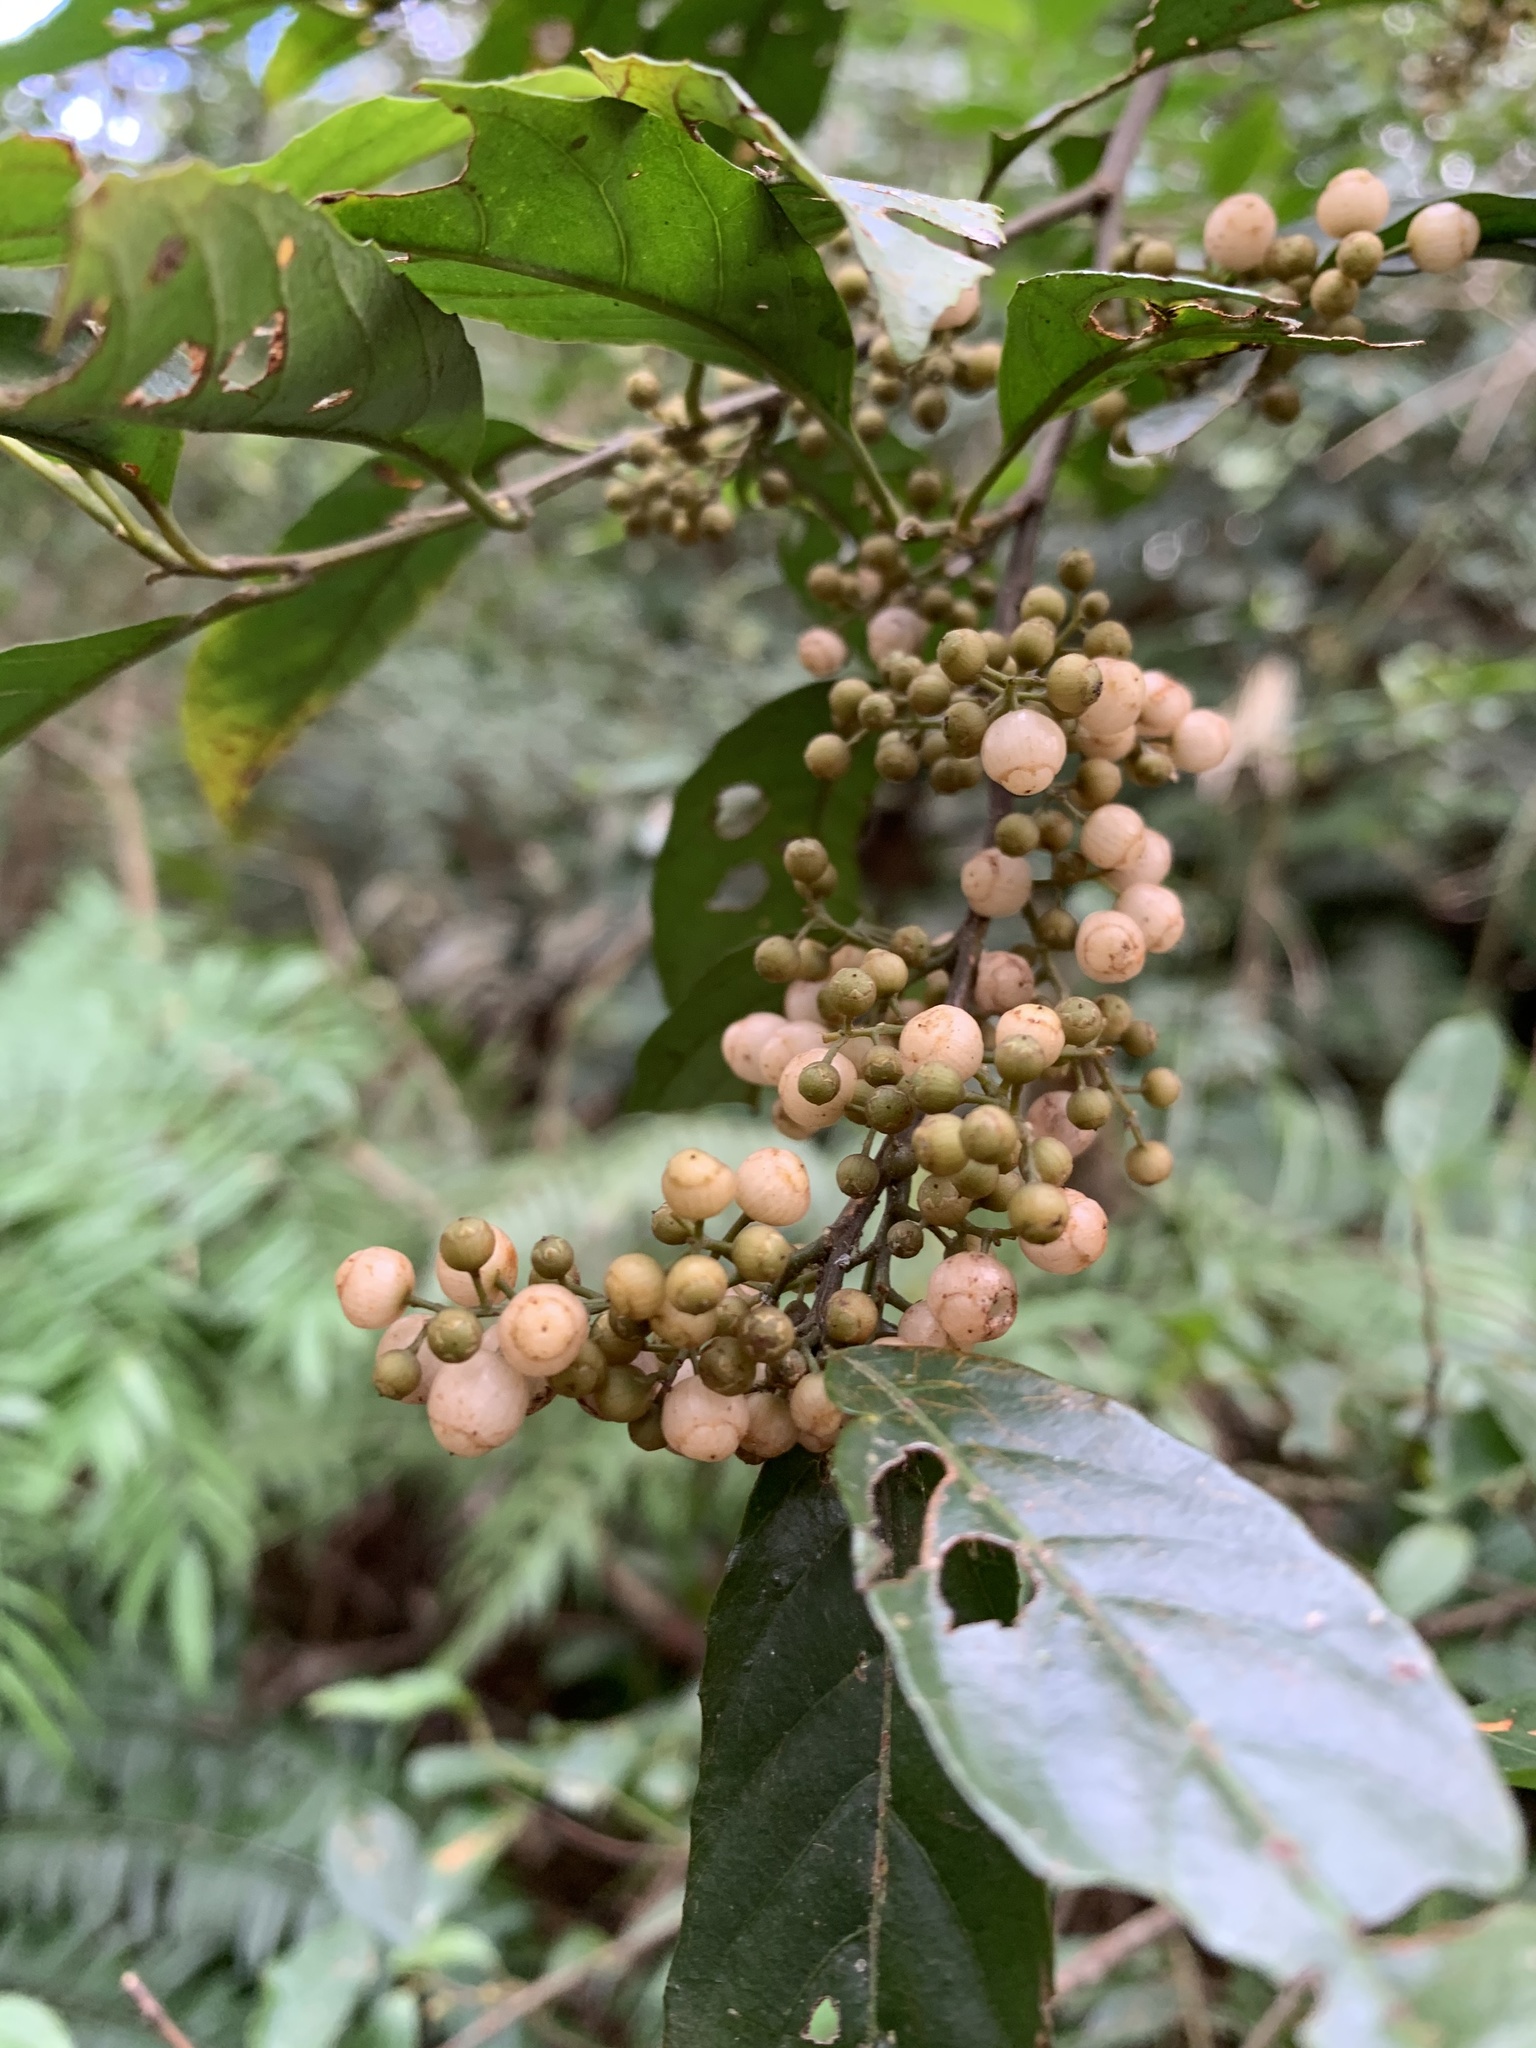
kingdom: Plantae
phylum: Tracheophyta
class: Magnoliopsida
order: Ericales
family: Primulaceae
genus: Maesa
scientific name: Maesa perlaria
